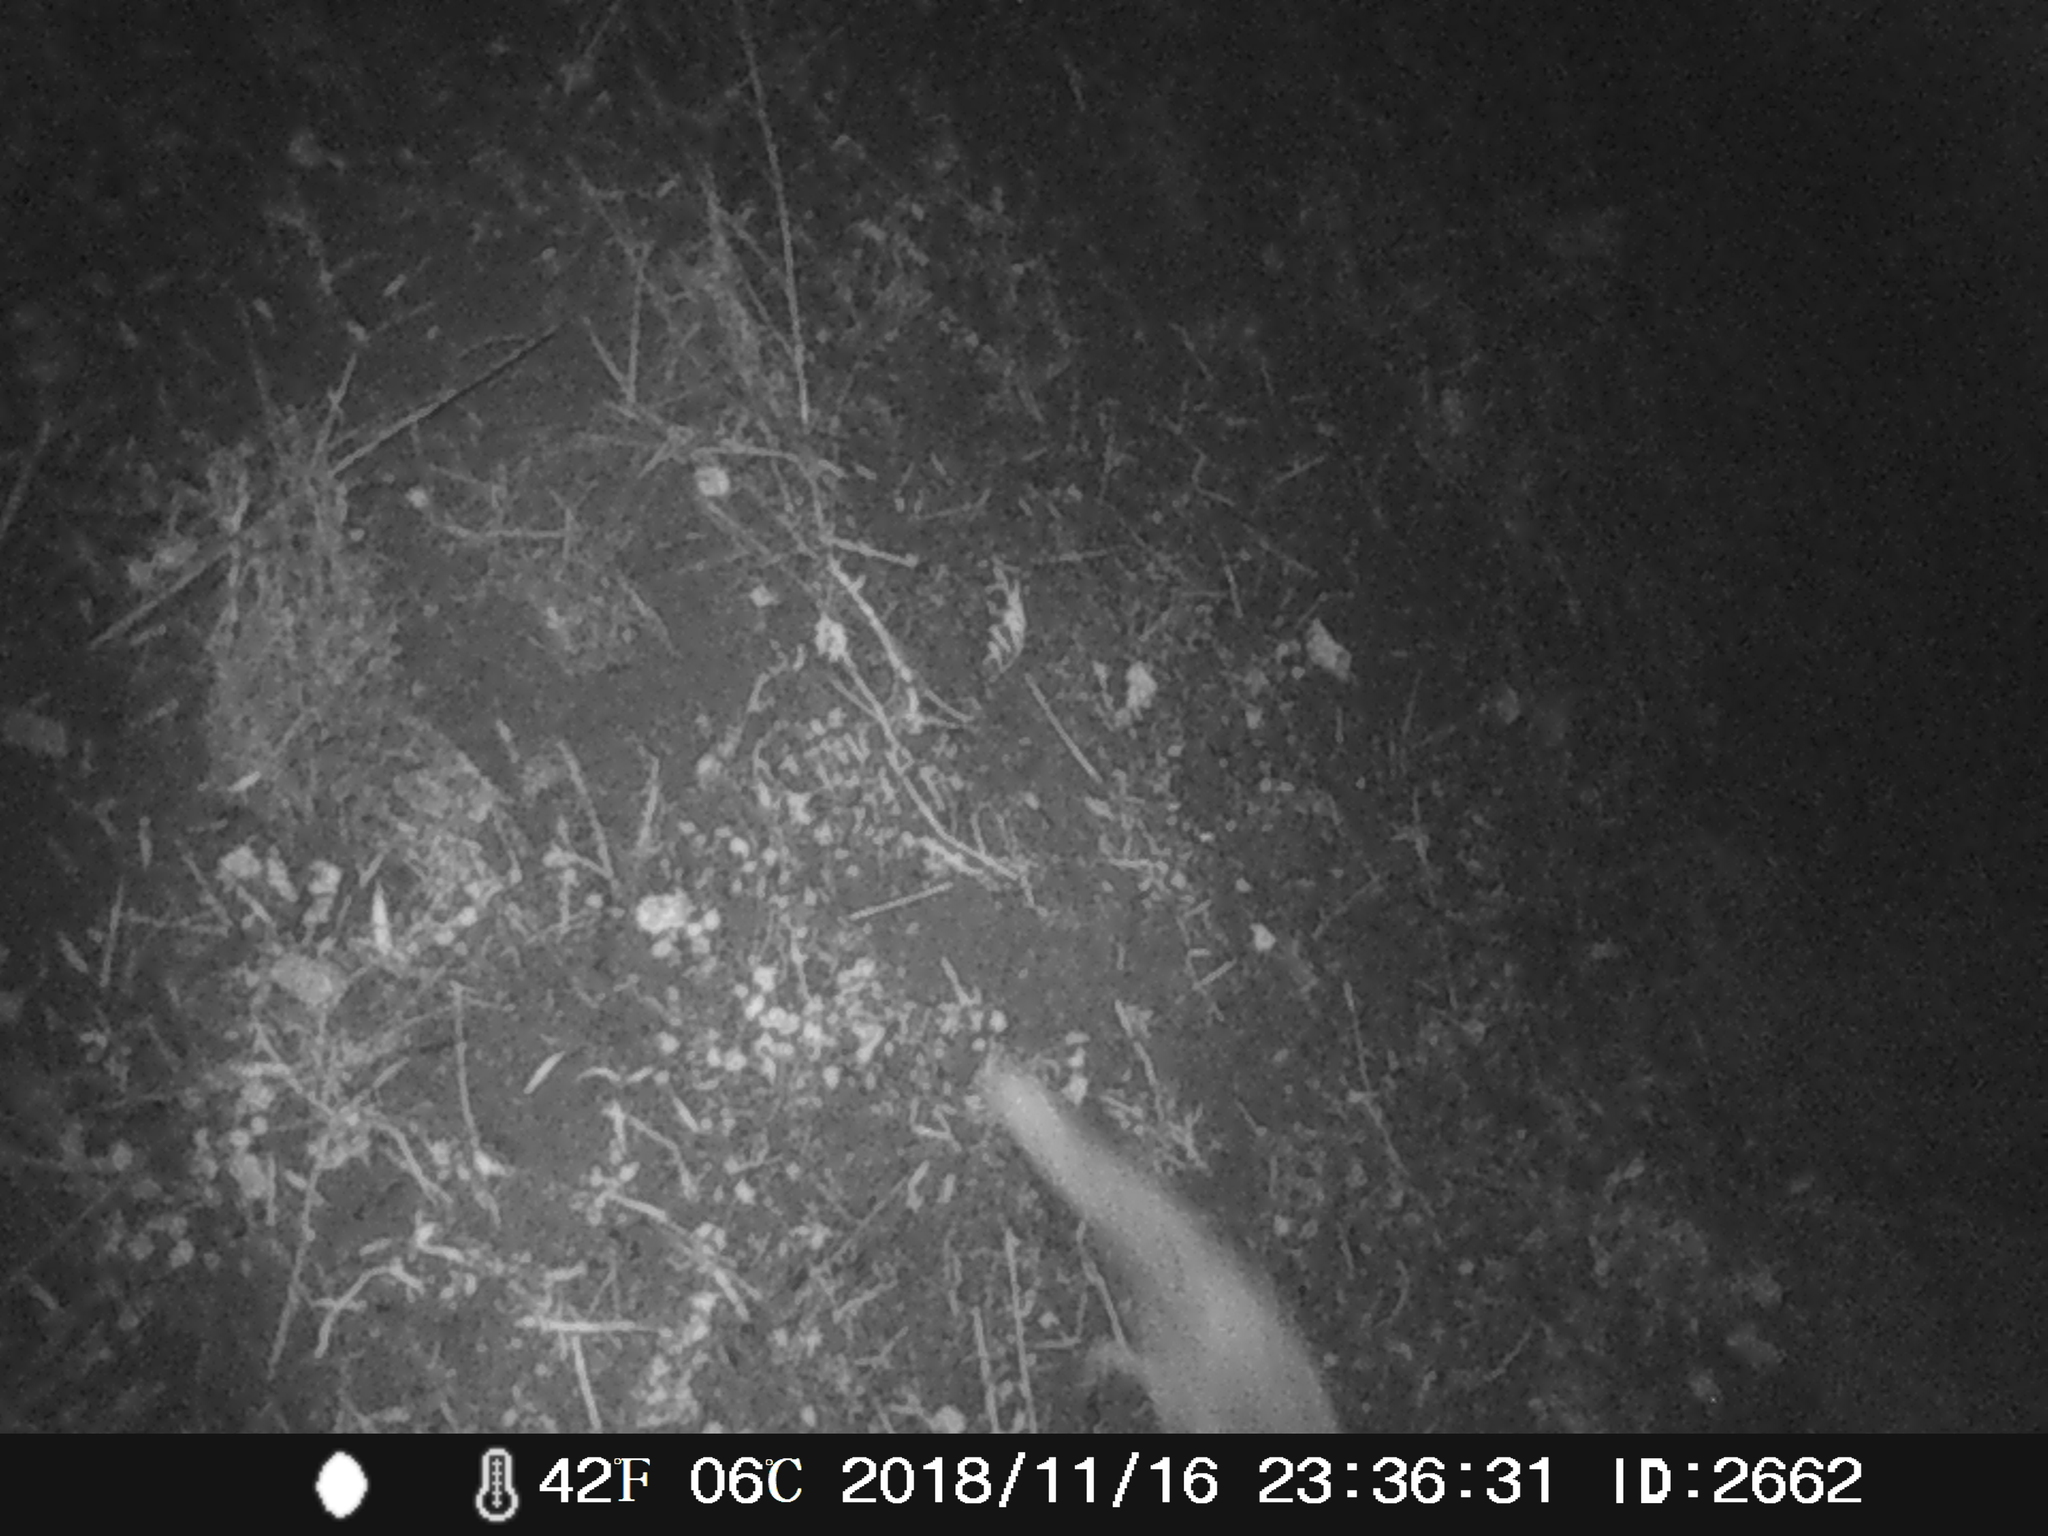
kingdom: Animalia
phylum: Chordata
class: Mammalia
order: Carnivora
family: Canidae
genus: Vulpes
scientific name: Vulpes vulpes
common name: Red fox
